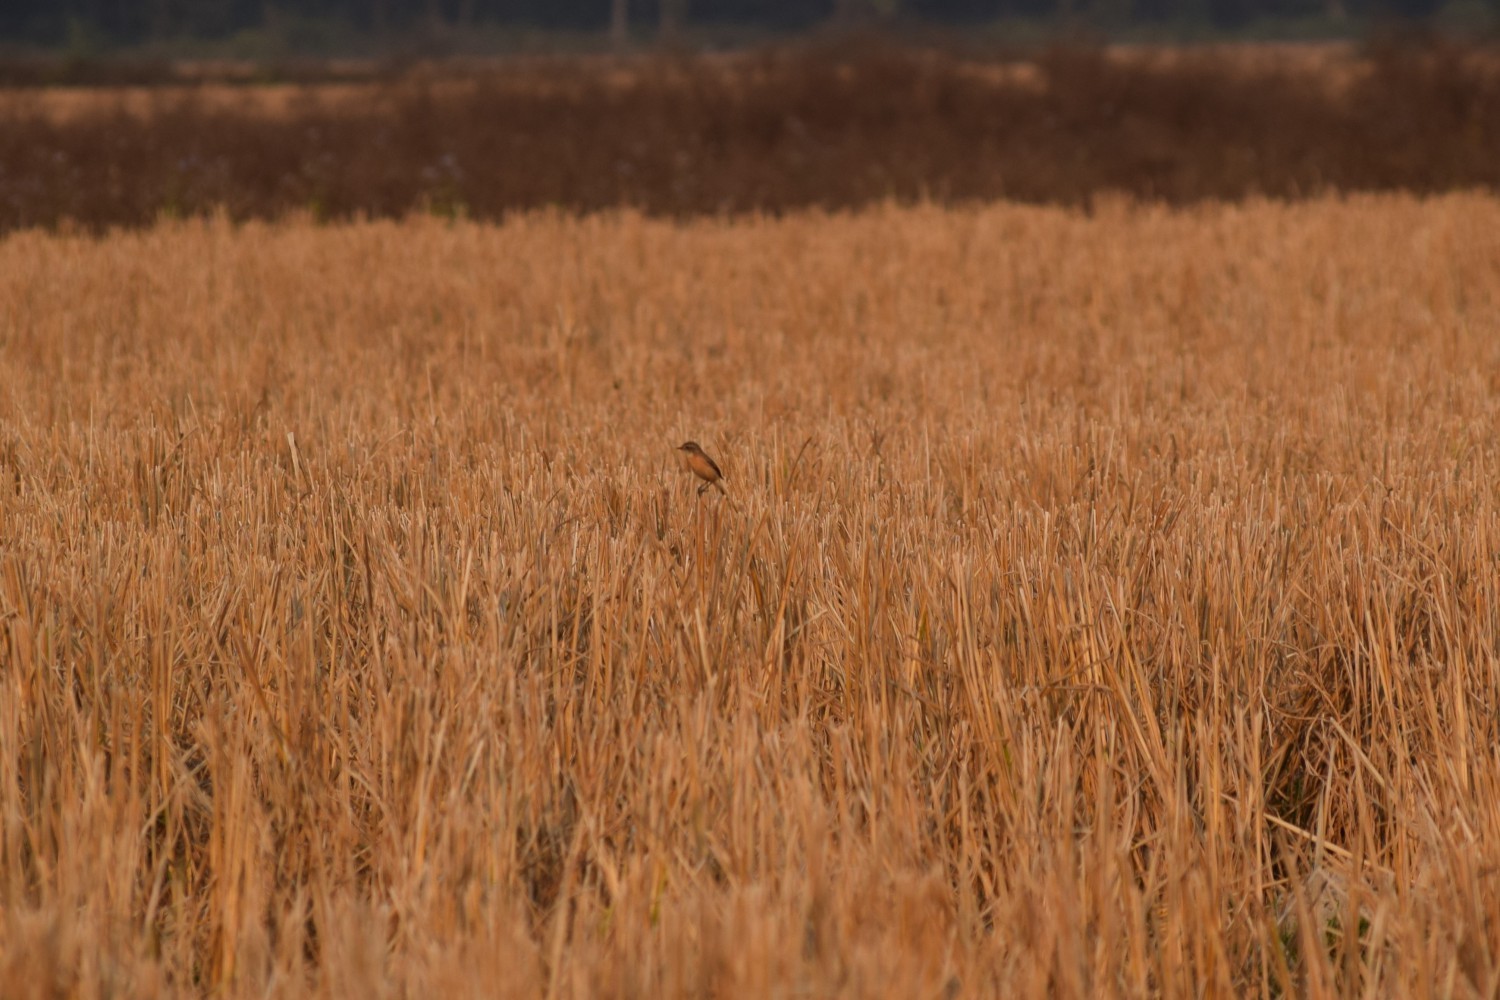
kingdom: Animalia
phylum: Chordata
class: Aves
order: Passeriformes
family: Muscicapidae
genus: Saxicola
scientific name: Saxicola maurus
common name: Siberian stonechat
